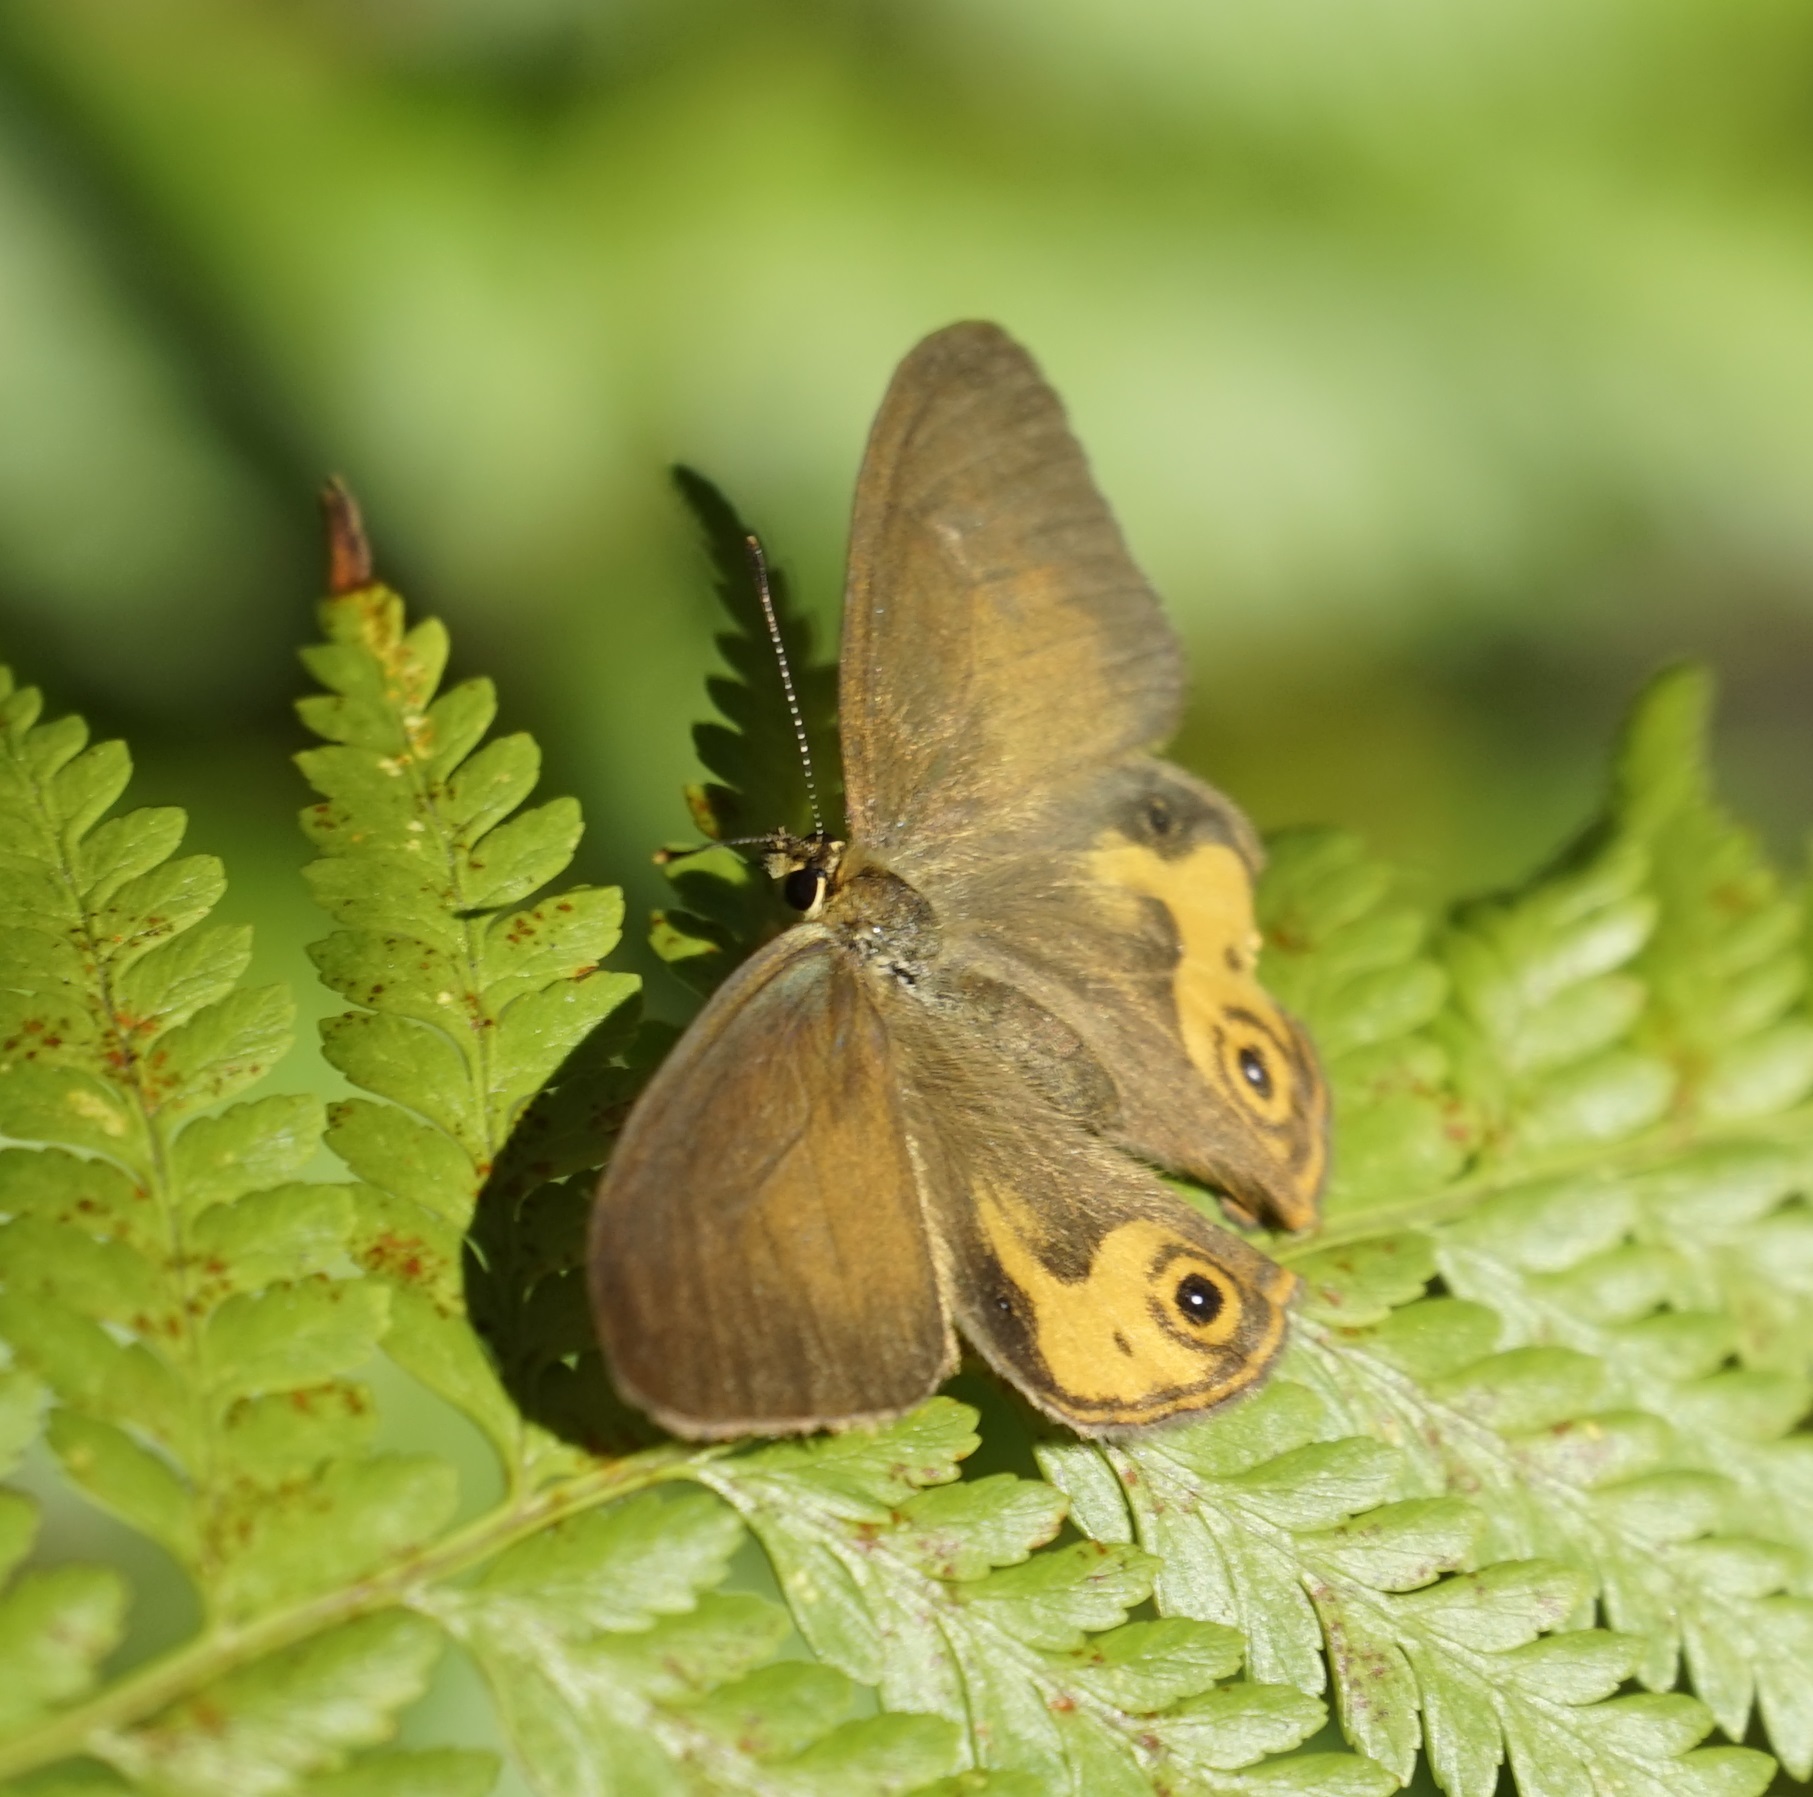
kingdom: Animalia
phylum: Arthropoda
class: Insecta
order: Lepidoptera
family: Nymphalidae
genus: Hypocysta
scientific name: Hypocysta metirius
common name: Brown ringlet
